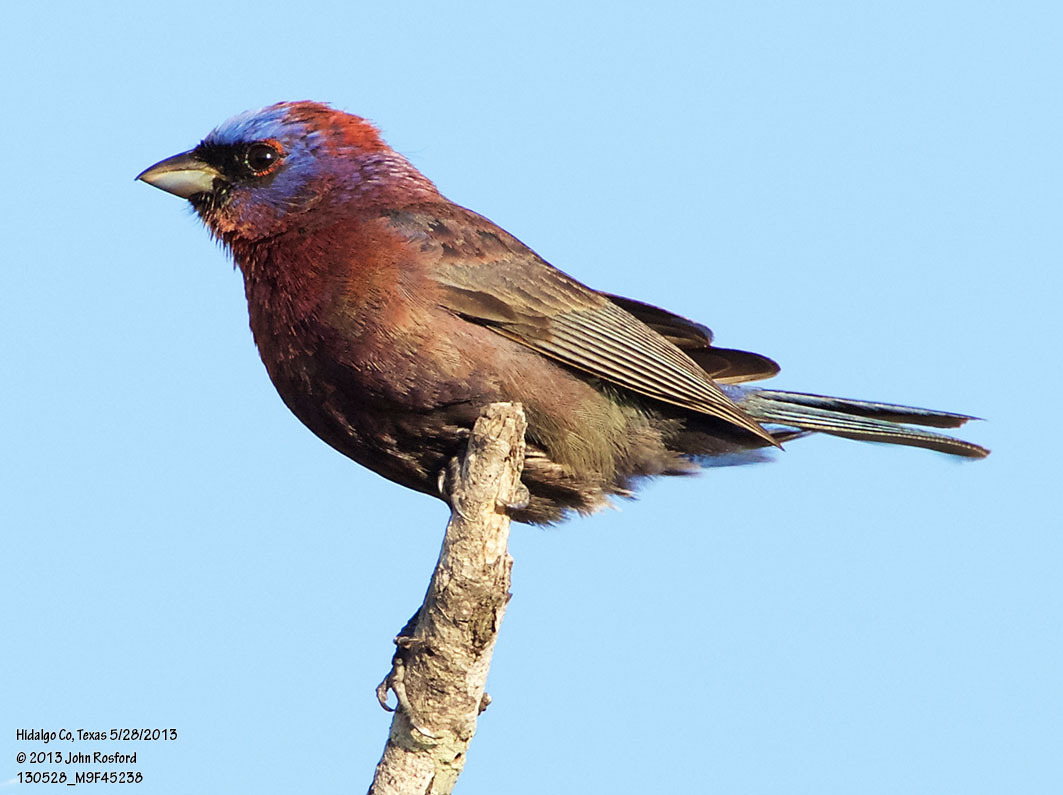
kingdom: Animalia
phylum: Chordata
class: Aves
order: Passeriformes
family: Cardinalidae
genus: Passerina
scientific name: Passerina versicolor
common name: Varied bunting
